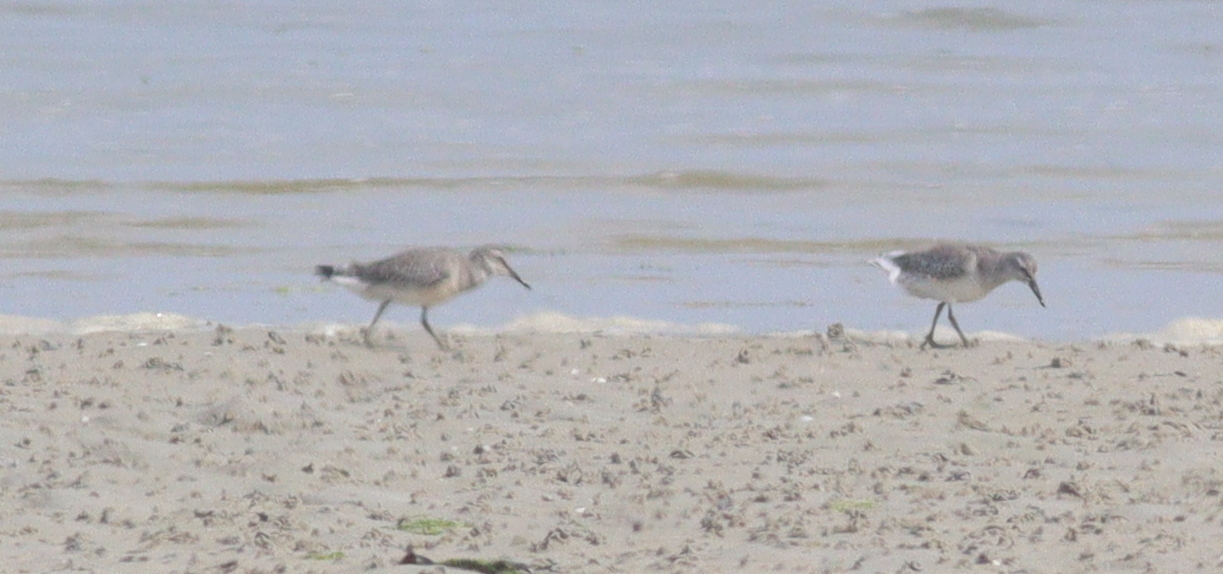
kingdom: Animalia
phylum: Chordata
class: Aves
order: Charadriiformes
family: Scolopacidae
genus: Calidris
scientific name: Calidris canutus
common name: Red knot
